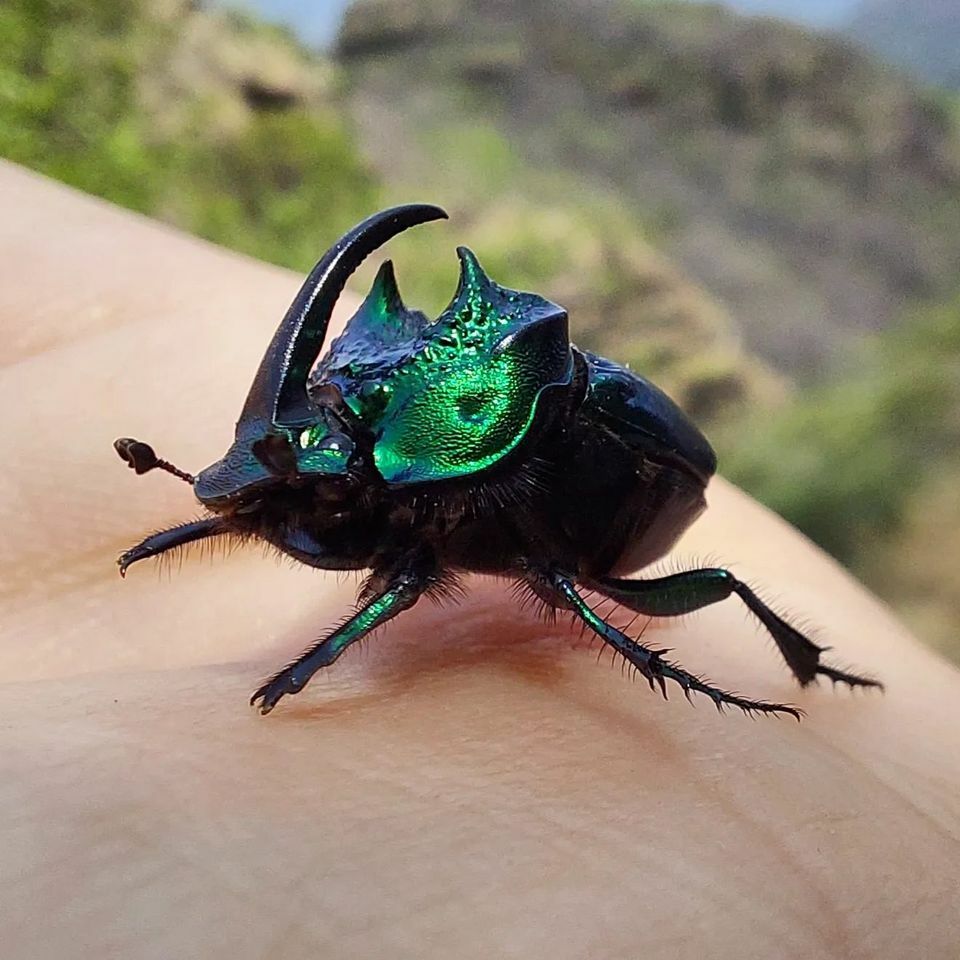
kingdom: Animalia
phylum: Arthropoda
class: Insecta
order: Coleoptera
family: Scarabaeidae
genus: Phanaeus
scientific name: Phanaeus daphnis
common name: Beetle
